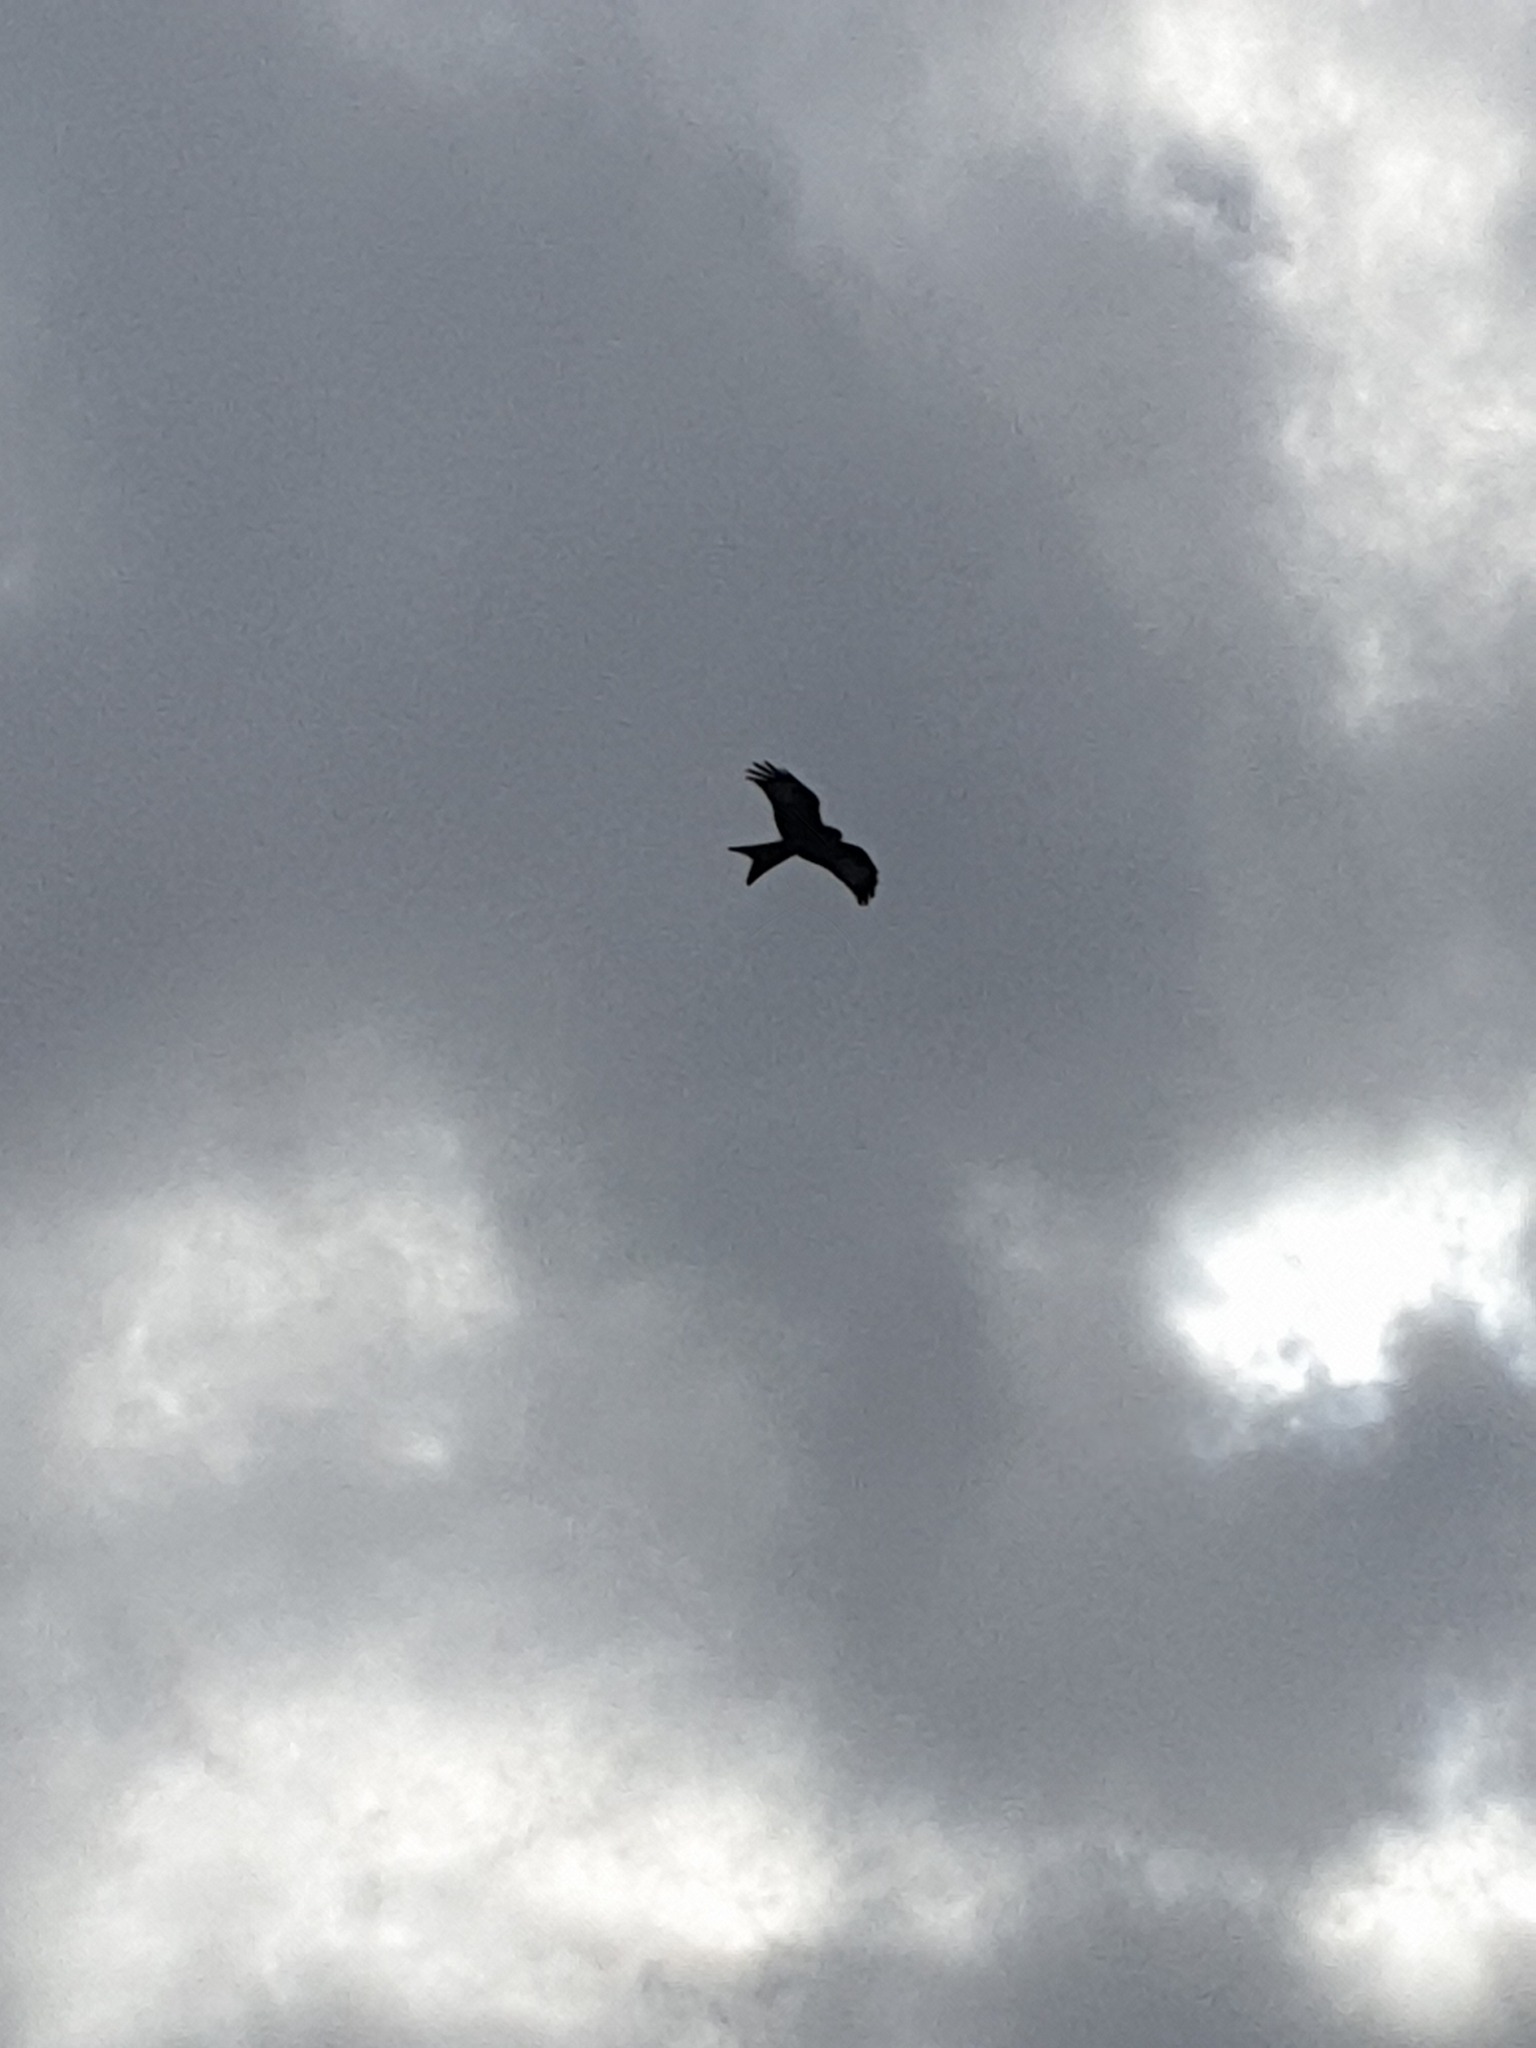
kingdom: Animalia
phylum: Chordata
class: Aves
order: Accipitriformes
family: Accipitridae
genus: Milvus
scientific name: Milvus milvus
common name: Red kite
